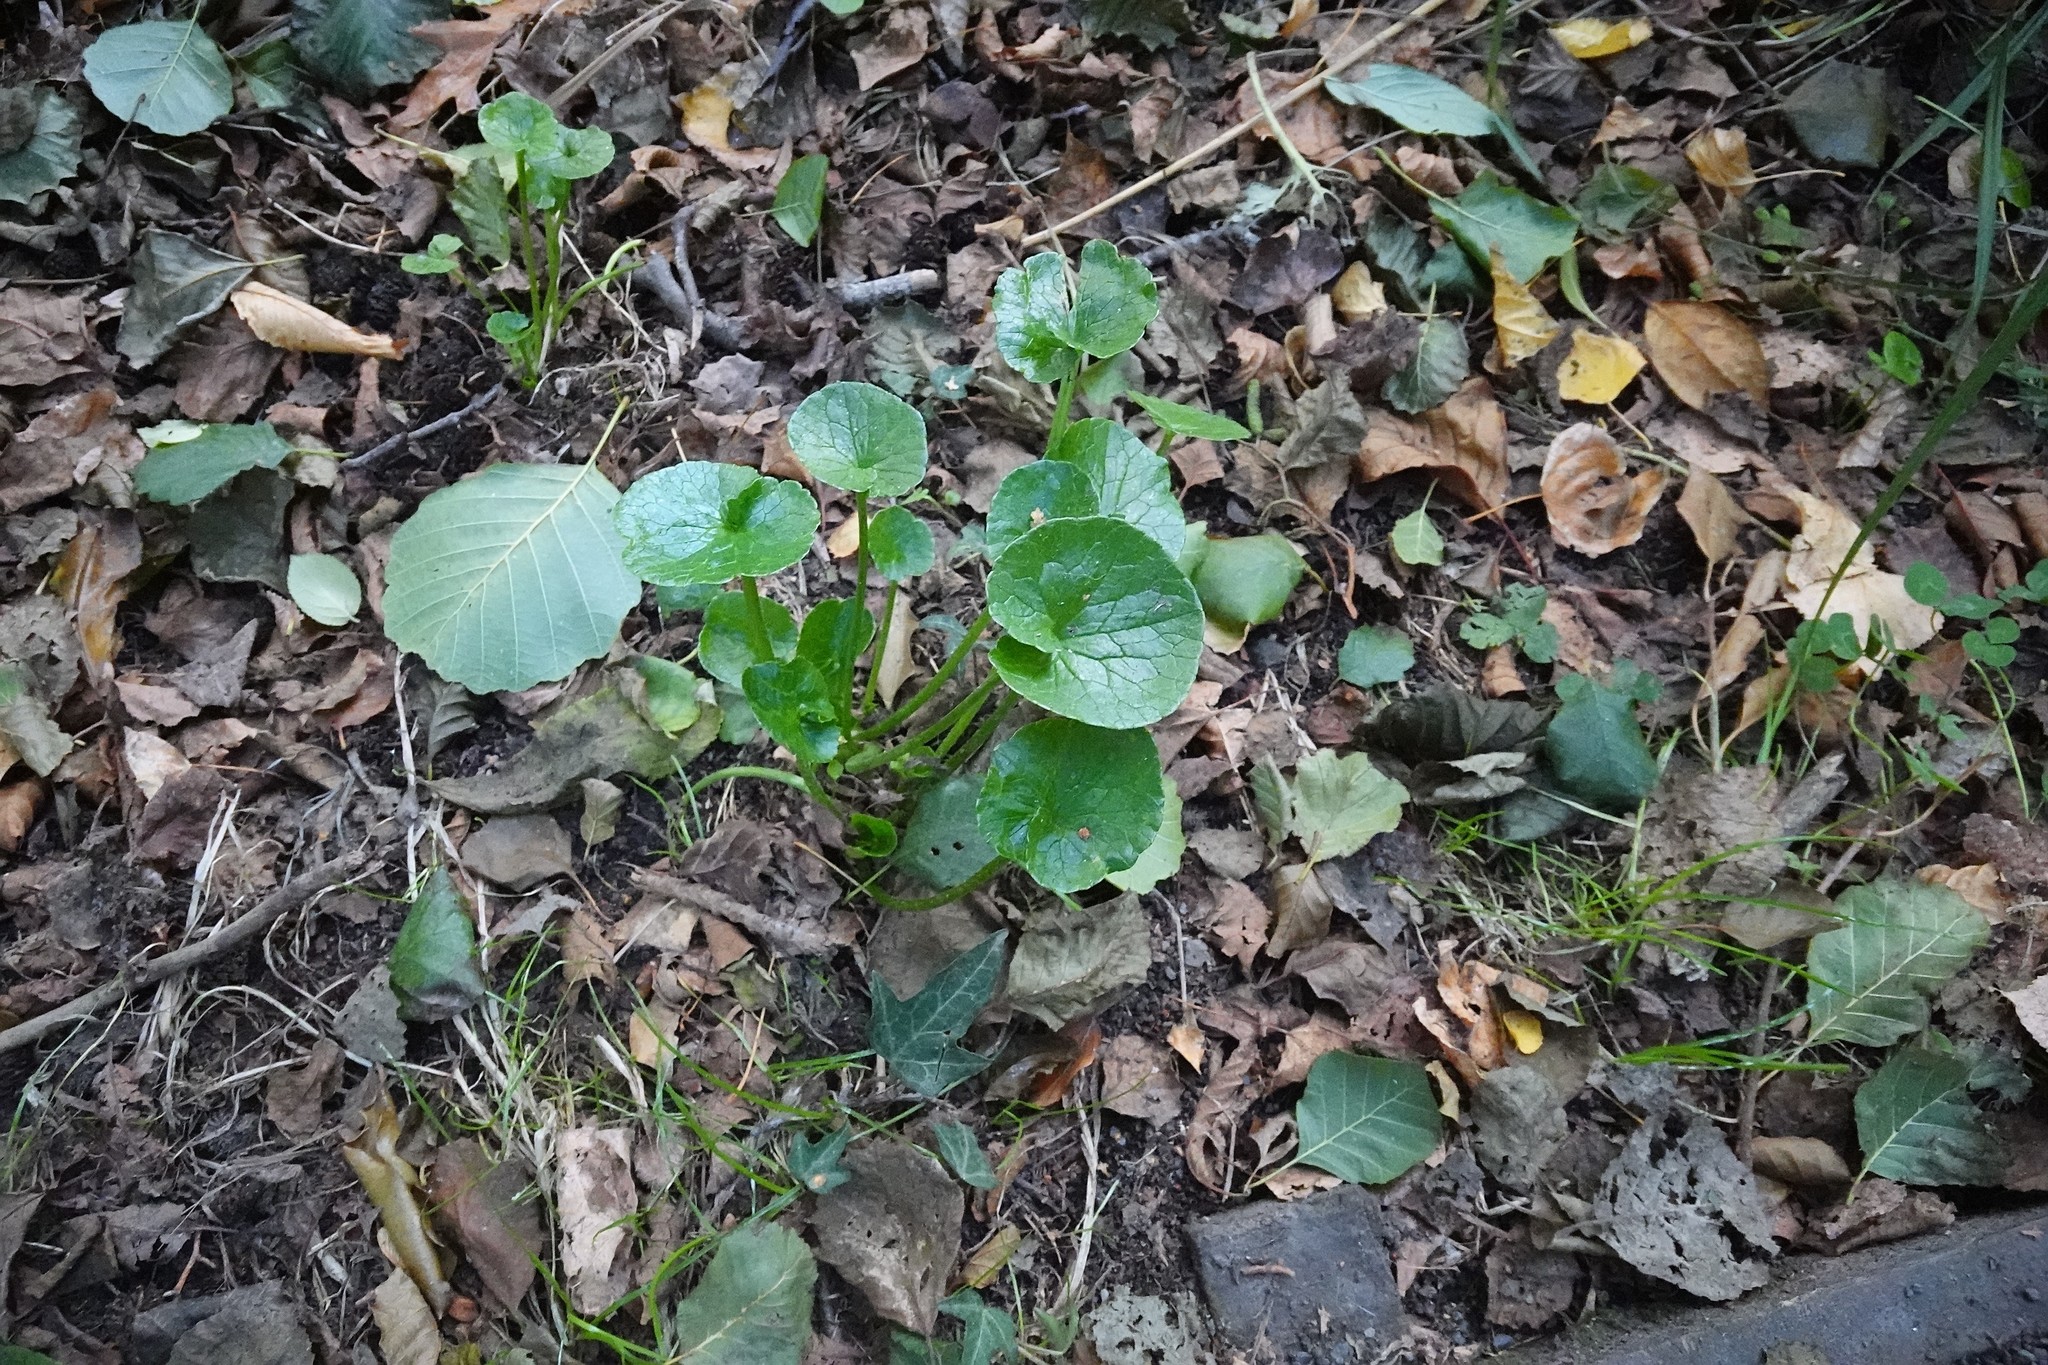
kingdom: Plantae
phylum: Tracheophyta
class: Magnoliopsida
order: Ranunculales
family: Ranunculaceae
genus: Ficaria
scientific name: Ficaria verna
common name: Lesser celandine
